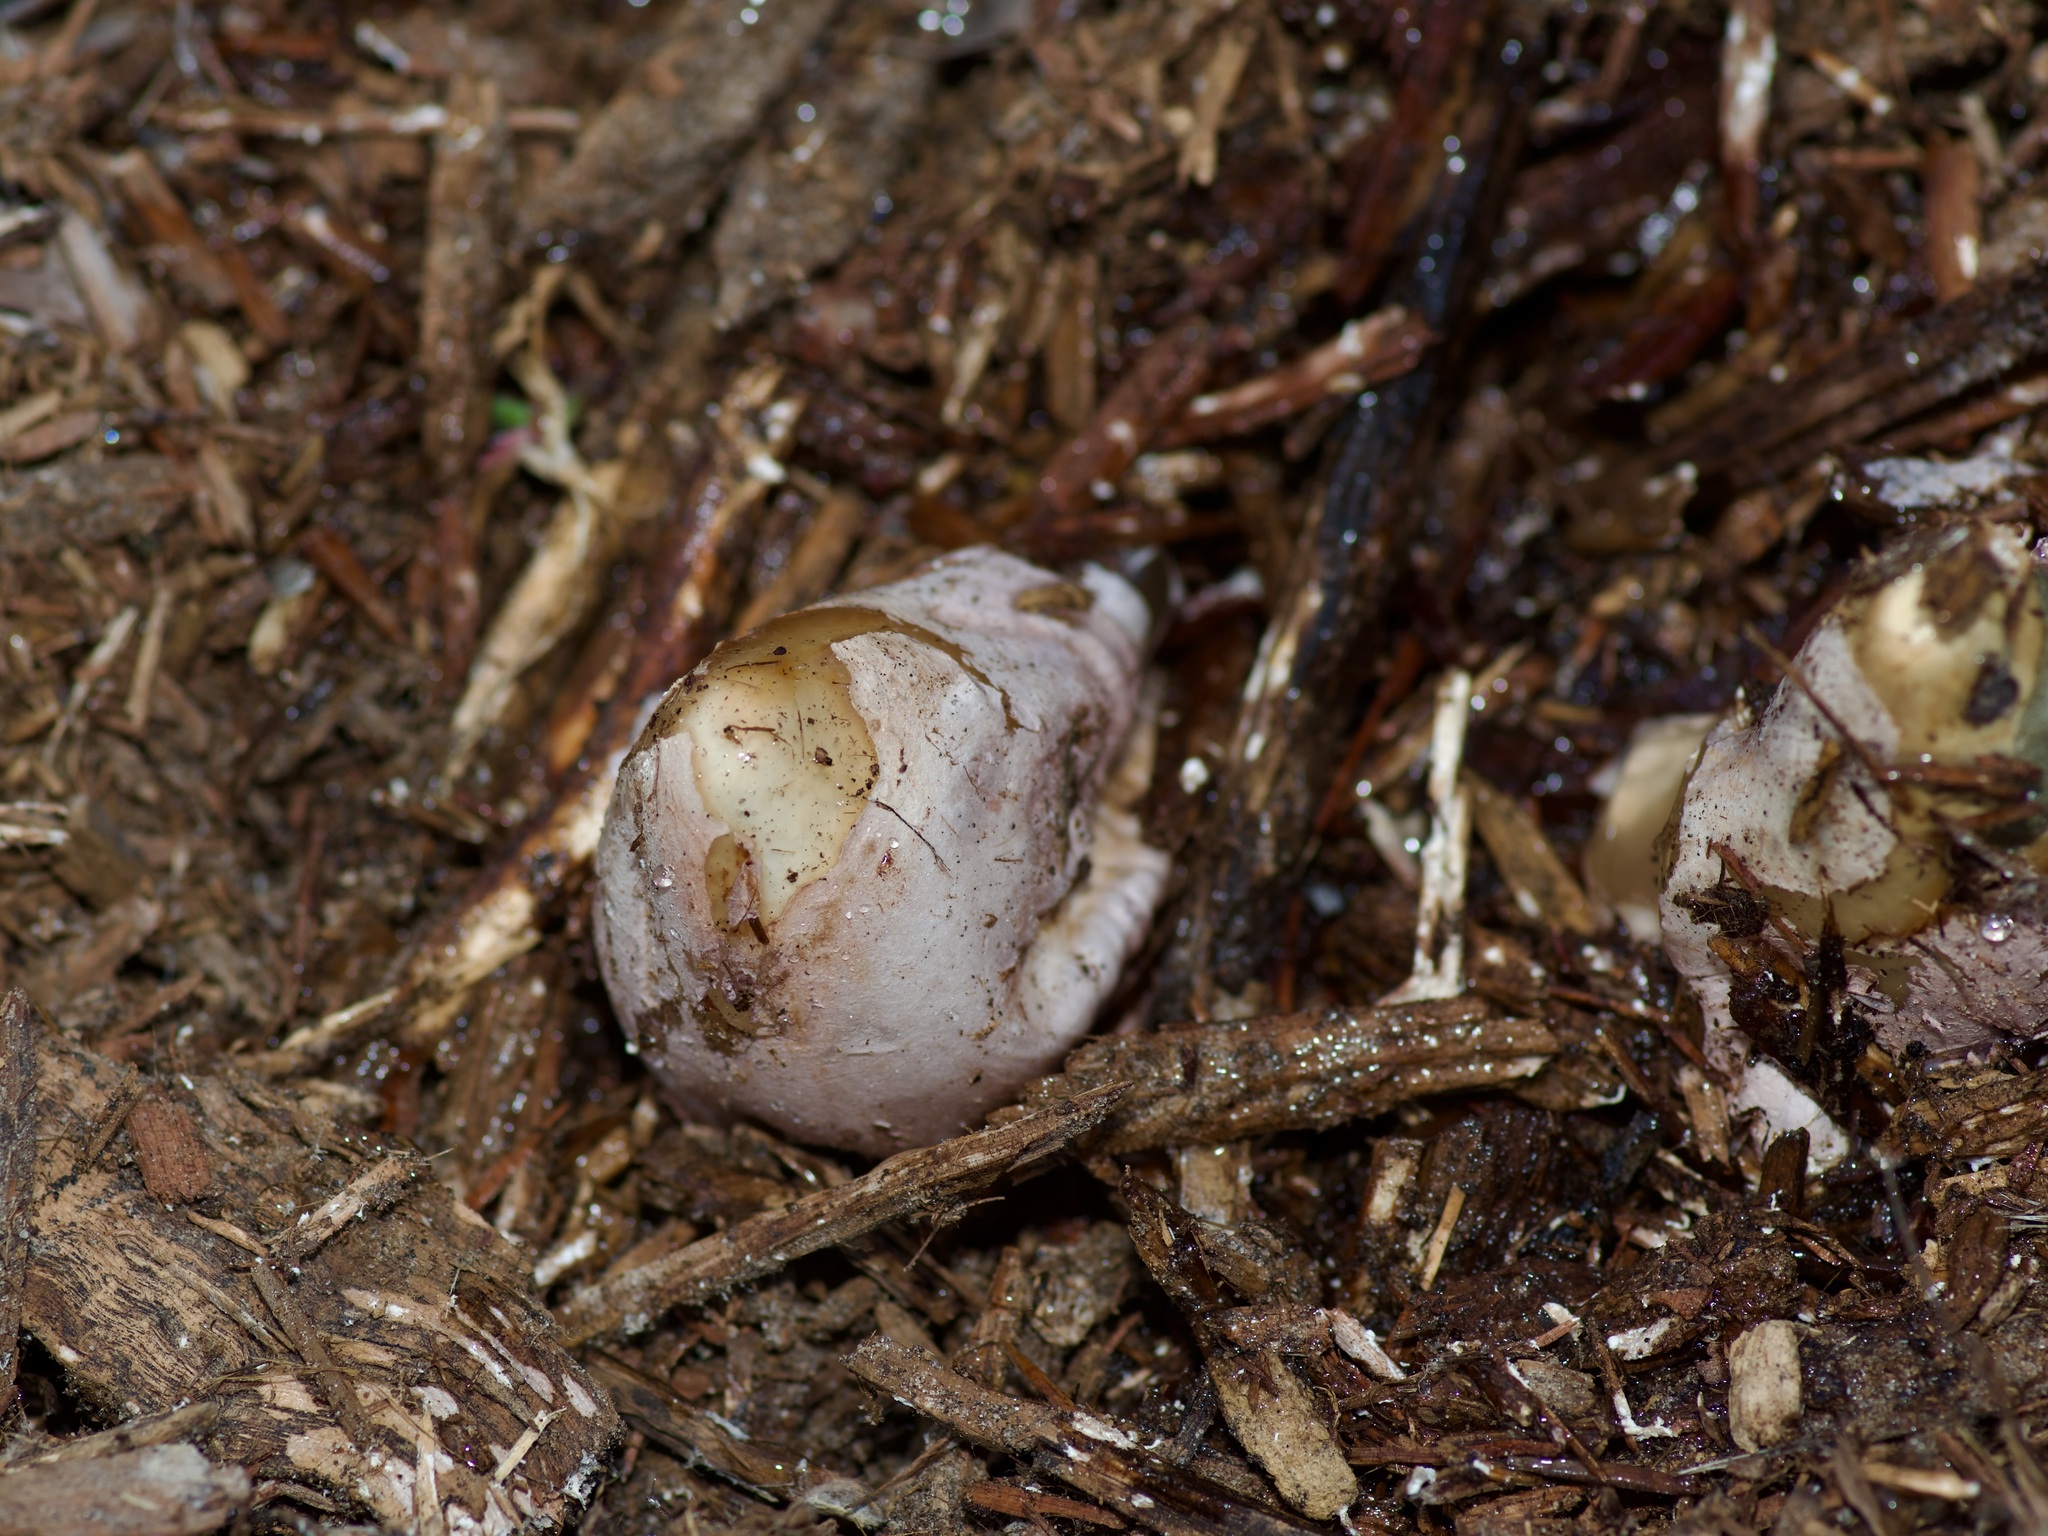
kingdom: Fungi
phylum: Basidiomycota
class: Agaricomycetes
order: Phallales
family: Phallaceae
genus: Phallus
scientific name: Phallus ravenelii
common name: Ravenel's stinkhorn
